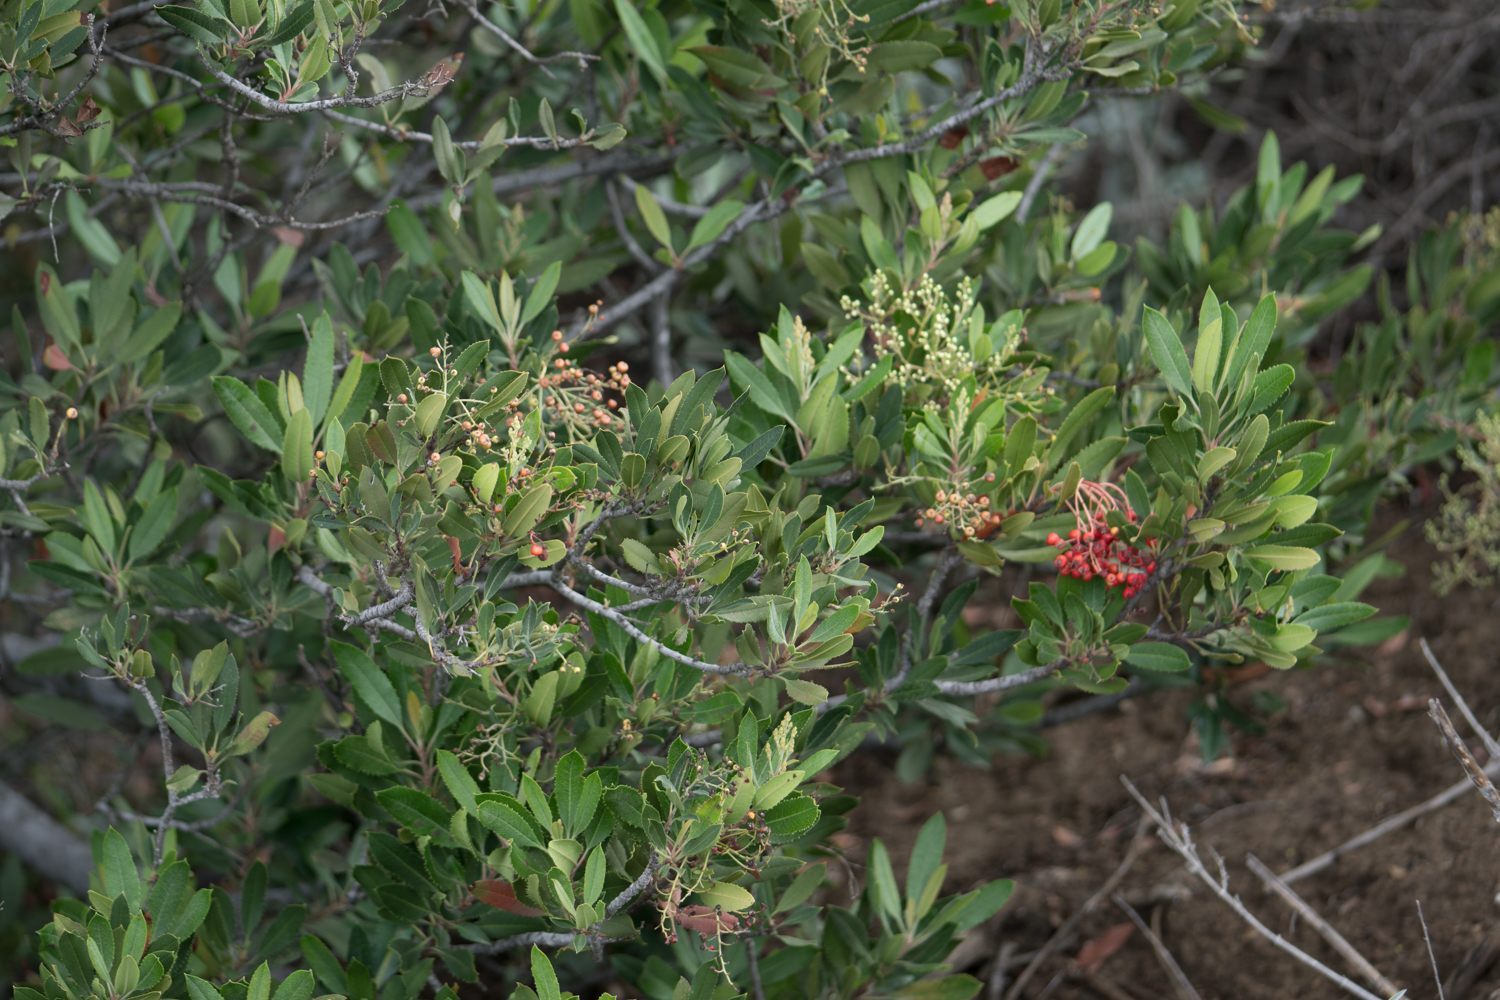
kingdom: Plantae
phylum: Tracheophyta
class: Magnoliopsida
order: Rosales
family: Rosaceae
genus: Heteromeles
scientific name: Heteromeles arbutifolia
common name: California-holly
